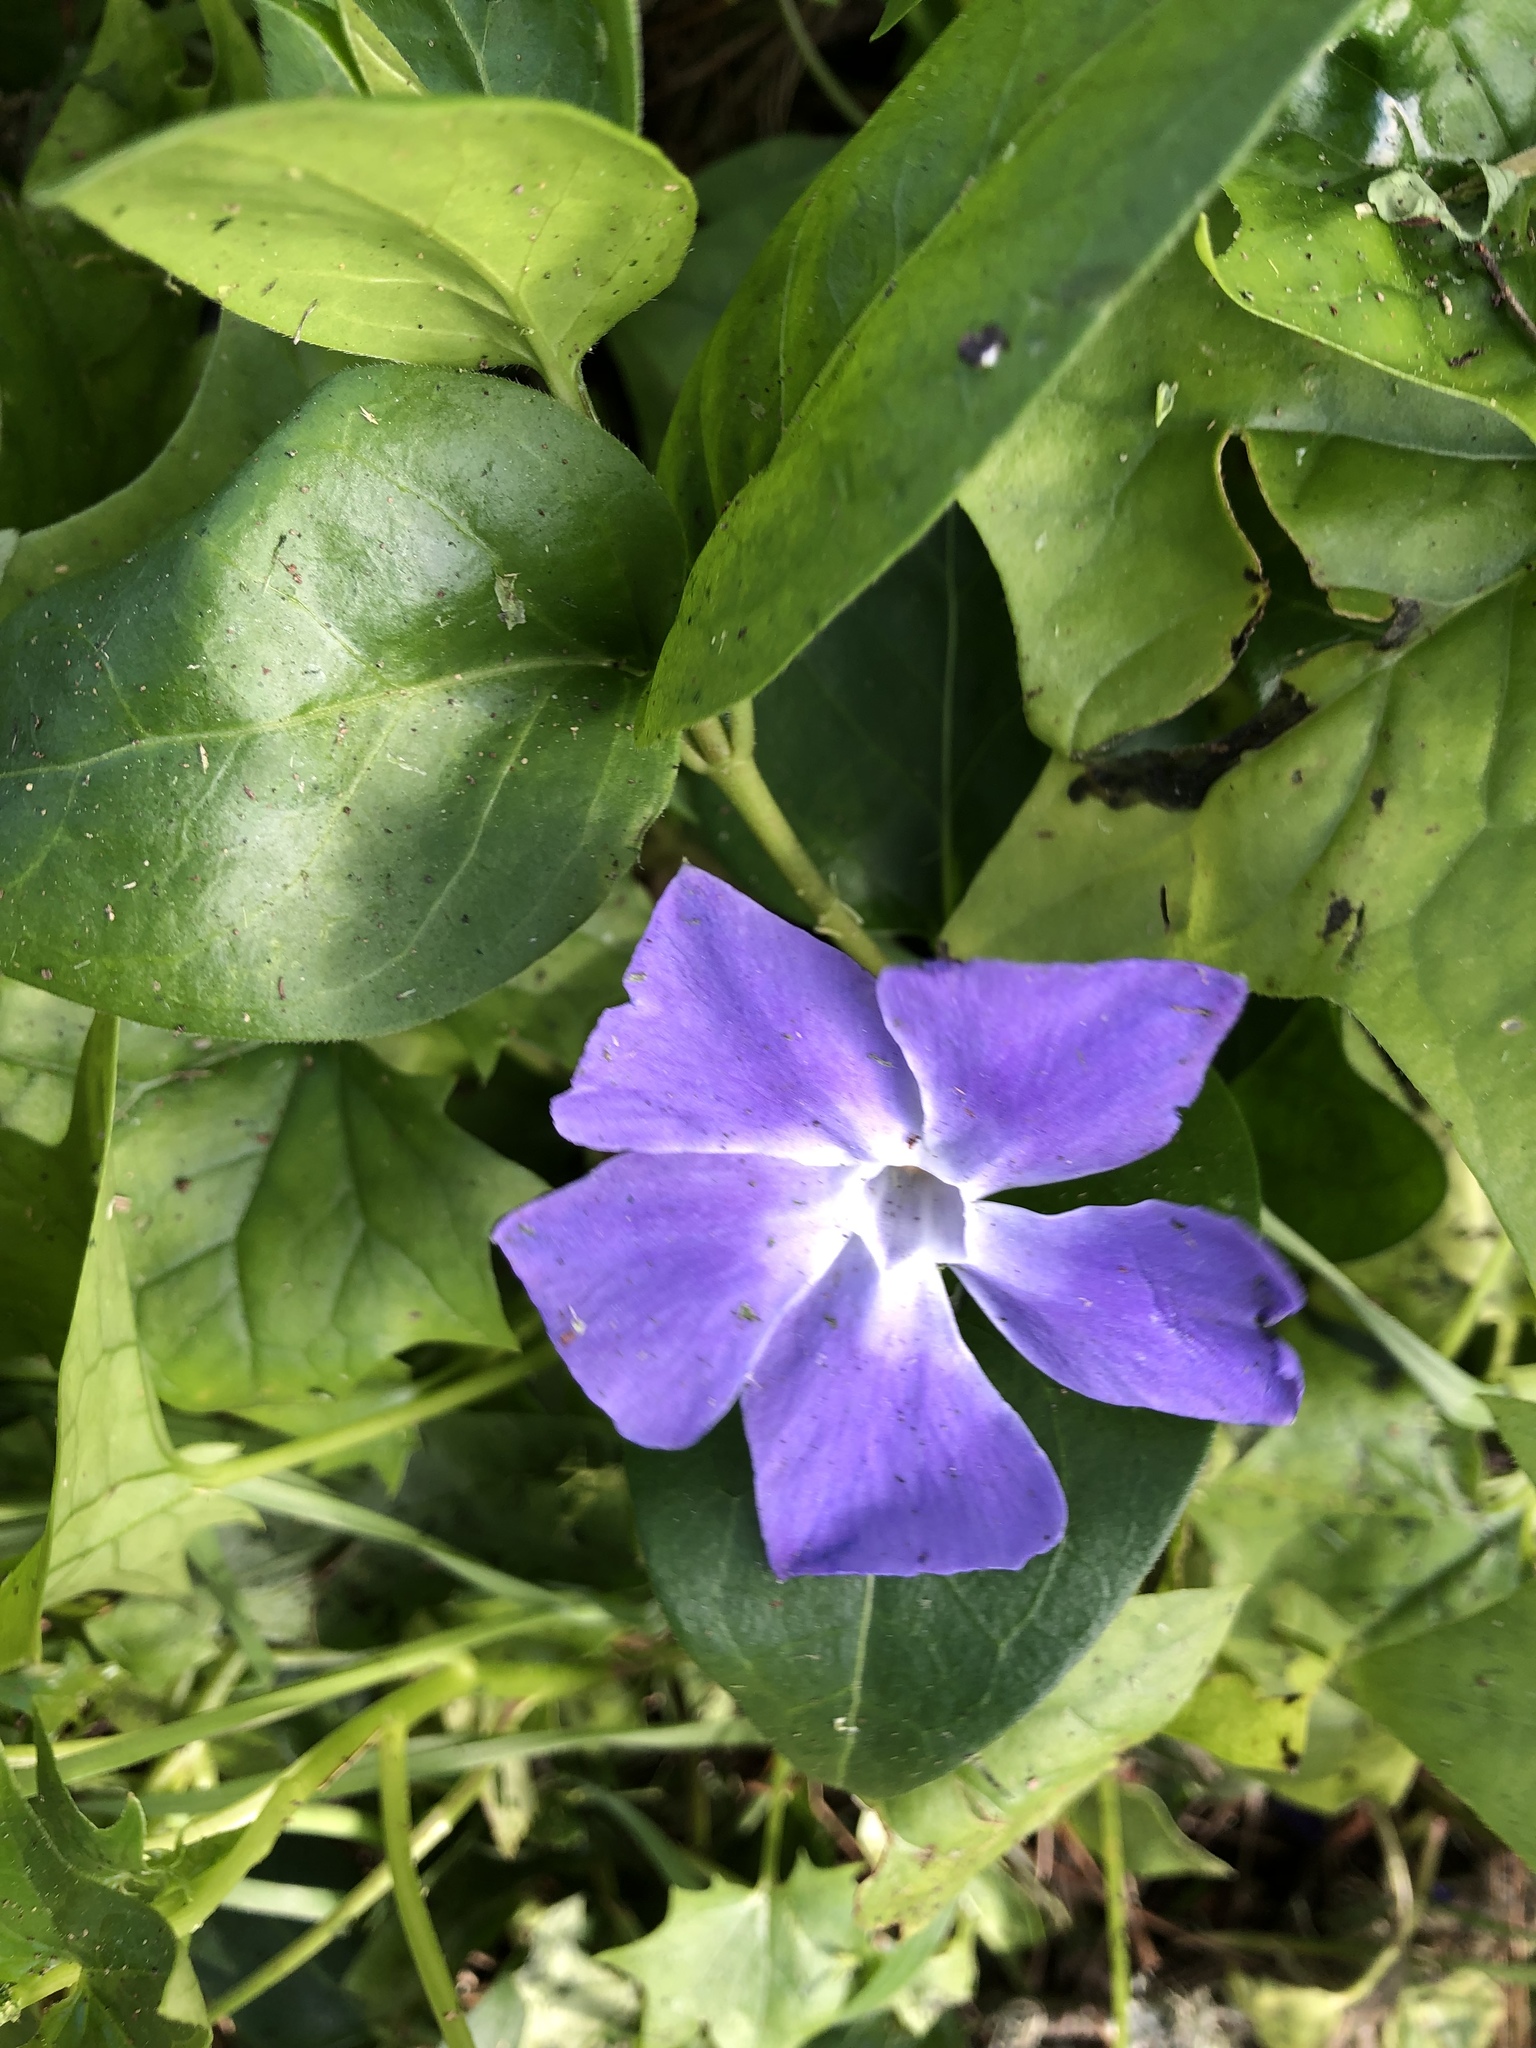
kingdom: Plantae
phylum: Tracheophyta
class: Magnoliopsida
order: Gentianales
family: Apocynaceae
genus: Vinca
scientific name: Vinca major
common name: Greater periwinkle
